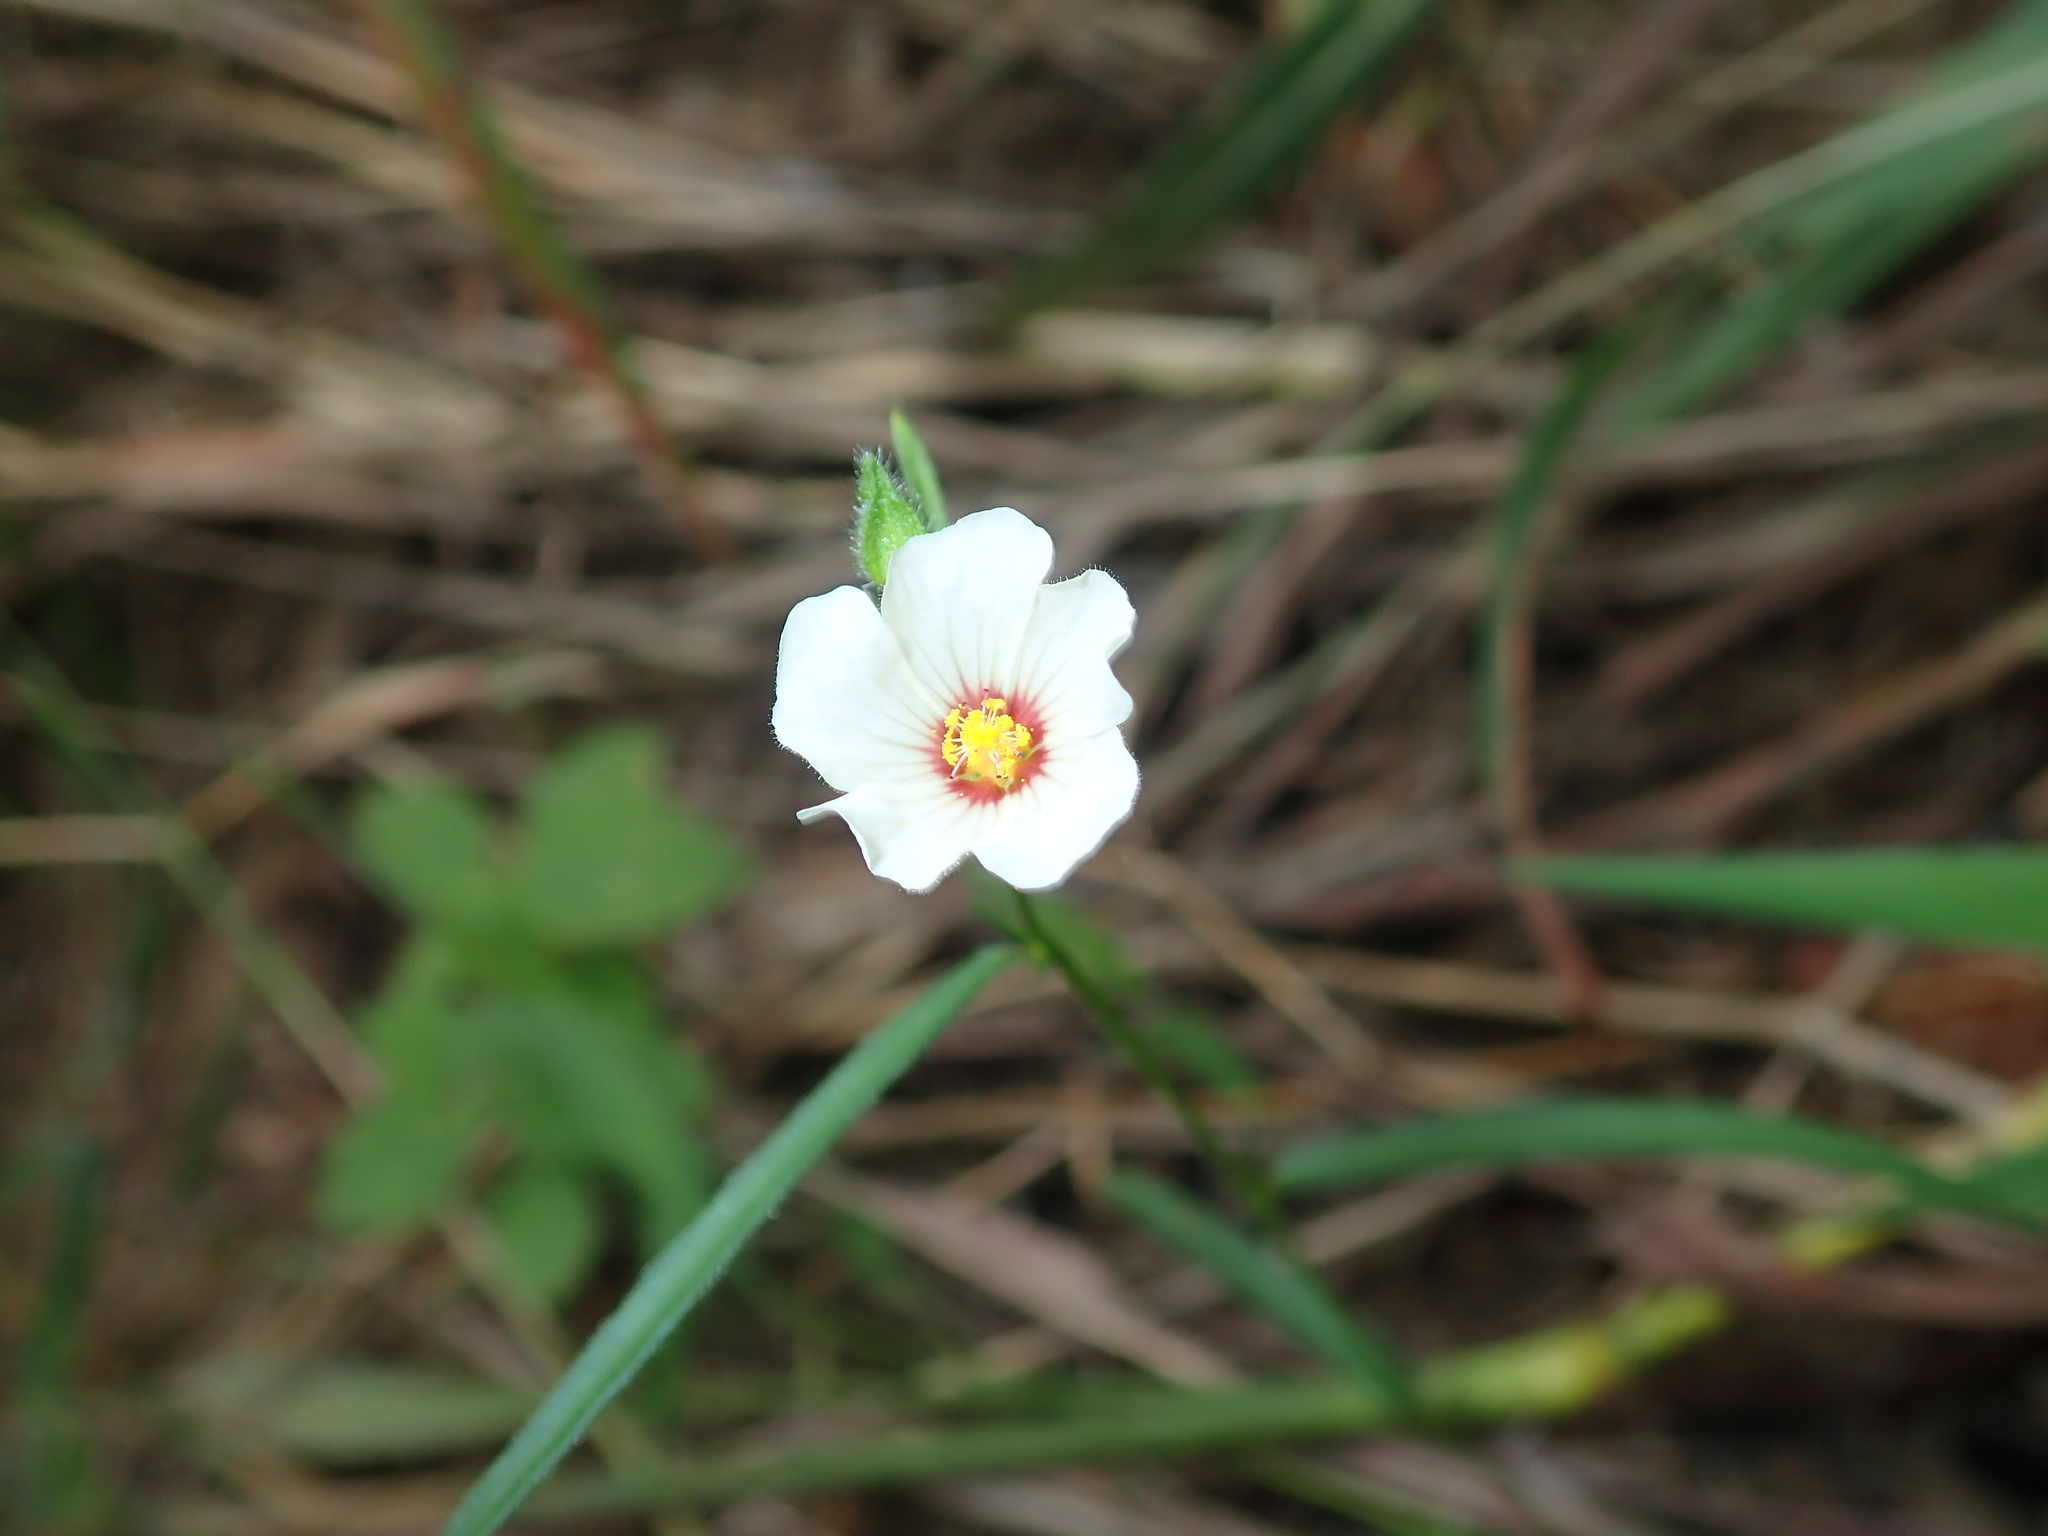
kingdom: Plantae
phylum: Tracheophyta
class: Magnoliopsida
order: Malvales
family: Malvaceae
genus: Sida
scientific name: Sida linifolia
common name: Flaxleaf fanpetals
